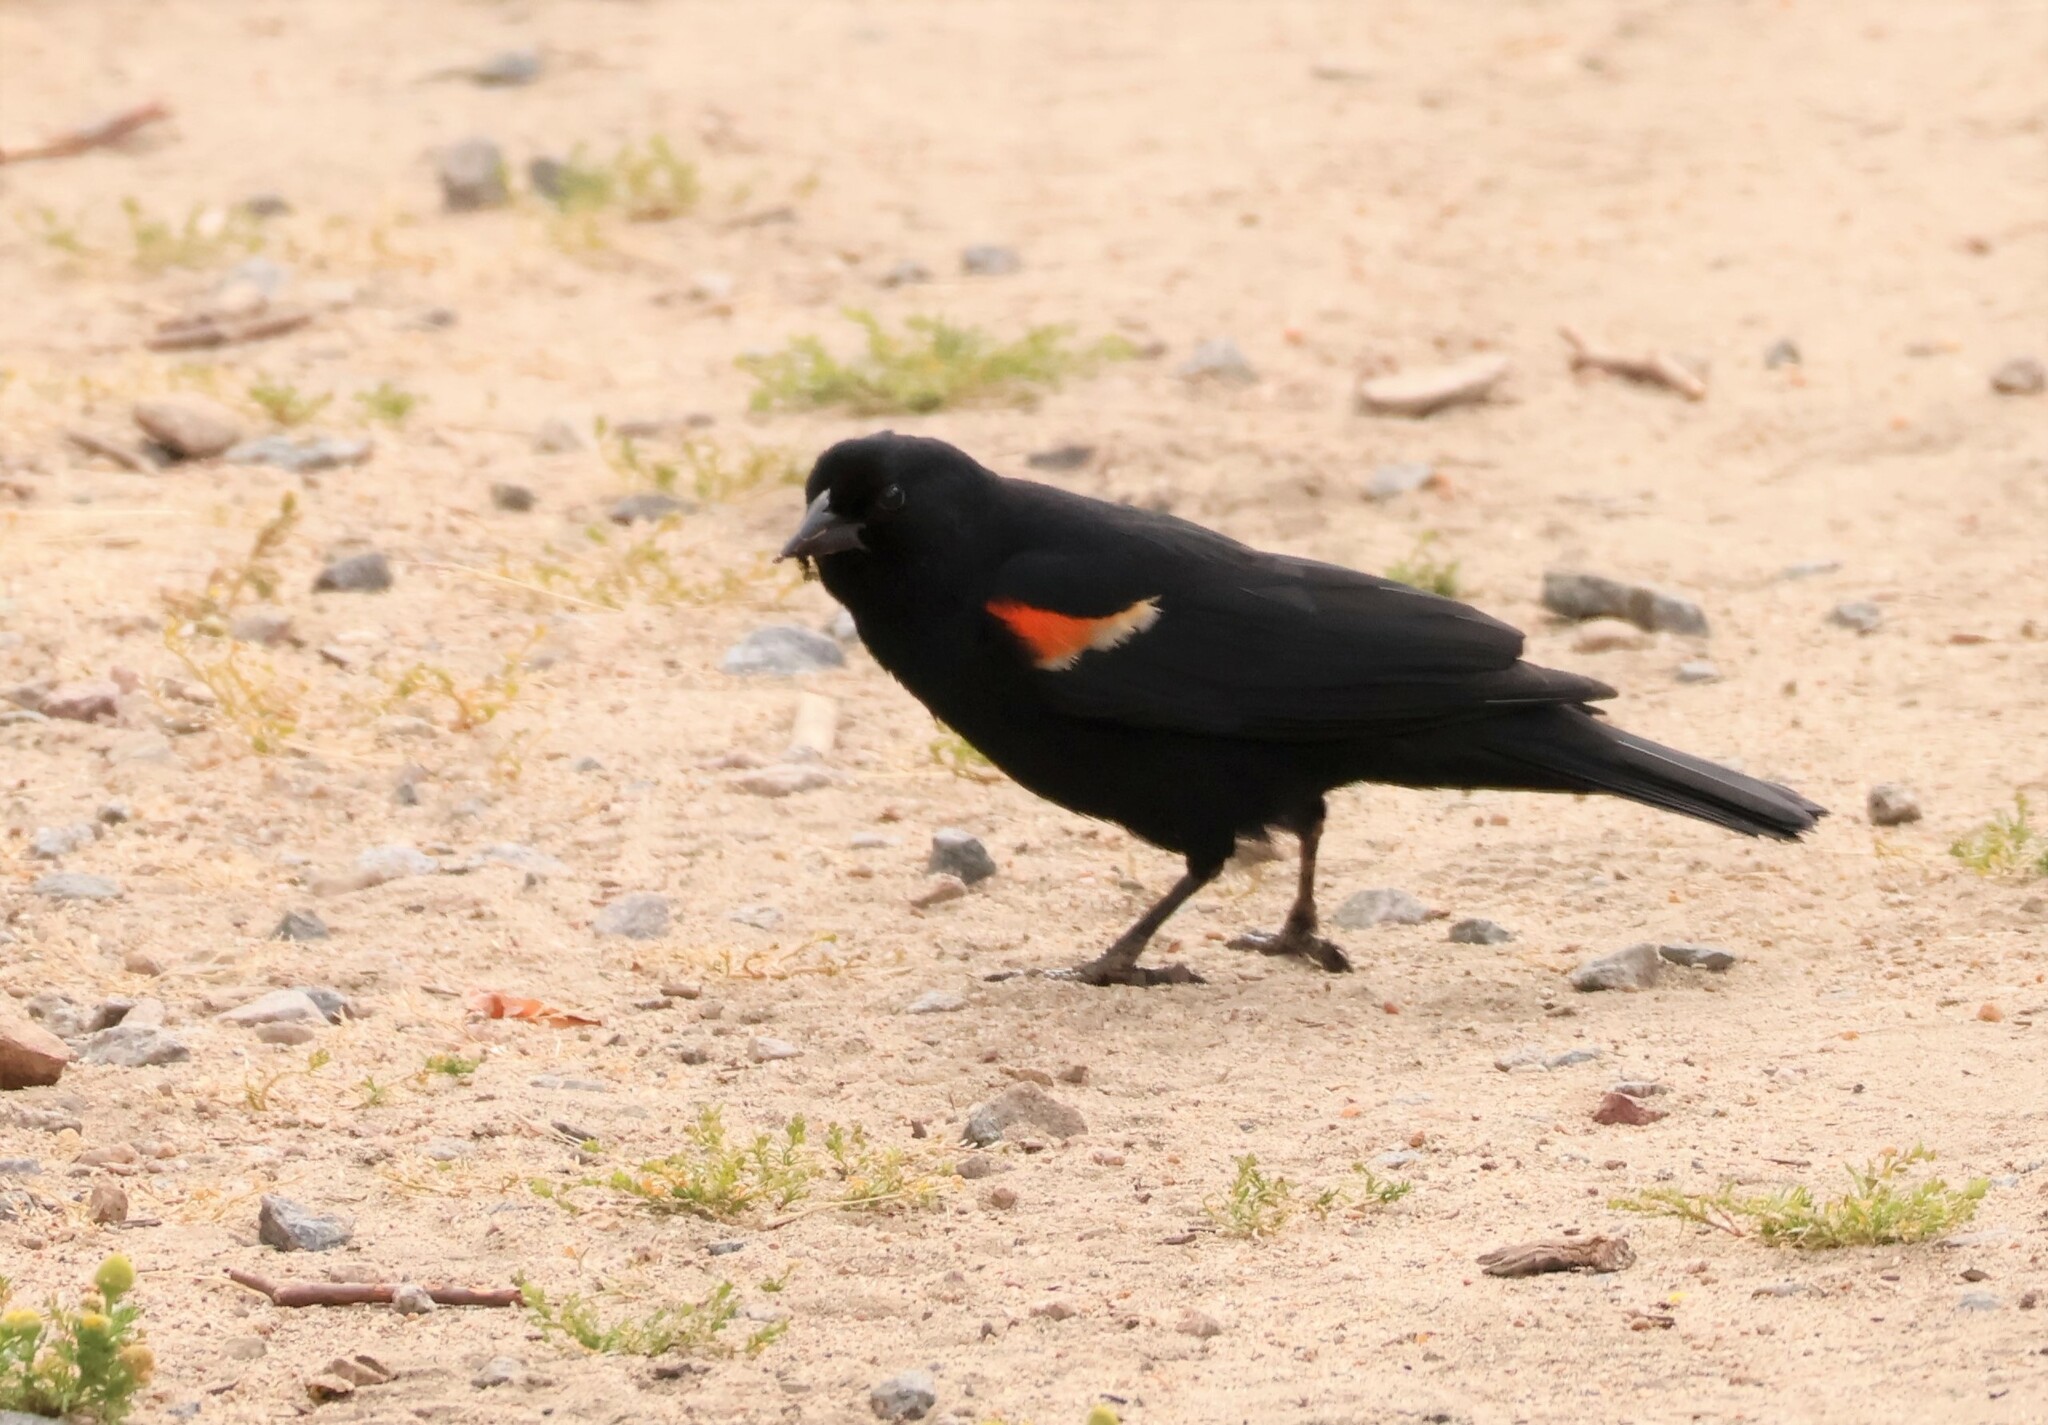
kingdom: Animalia
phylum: Chordata
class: Aves
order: Passeriformes
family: Icteridae
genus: Agelaius
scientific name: Agelaius phoeniceus
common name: Red-winged blackbird
